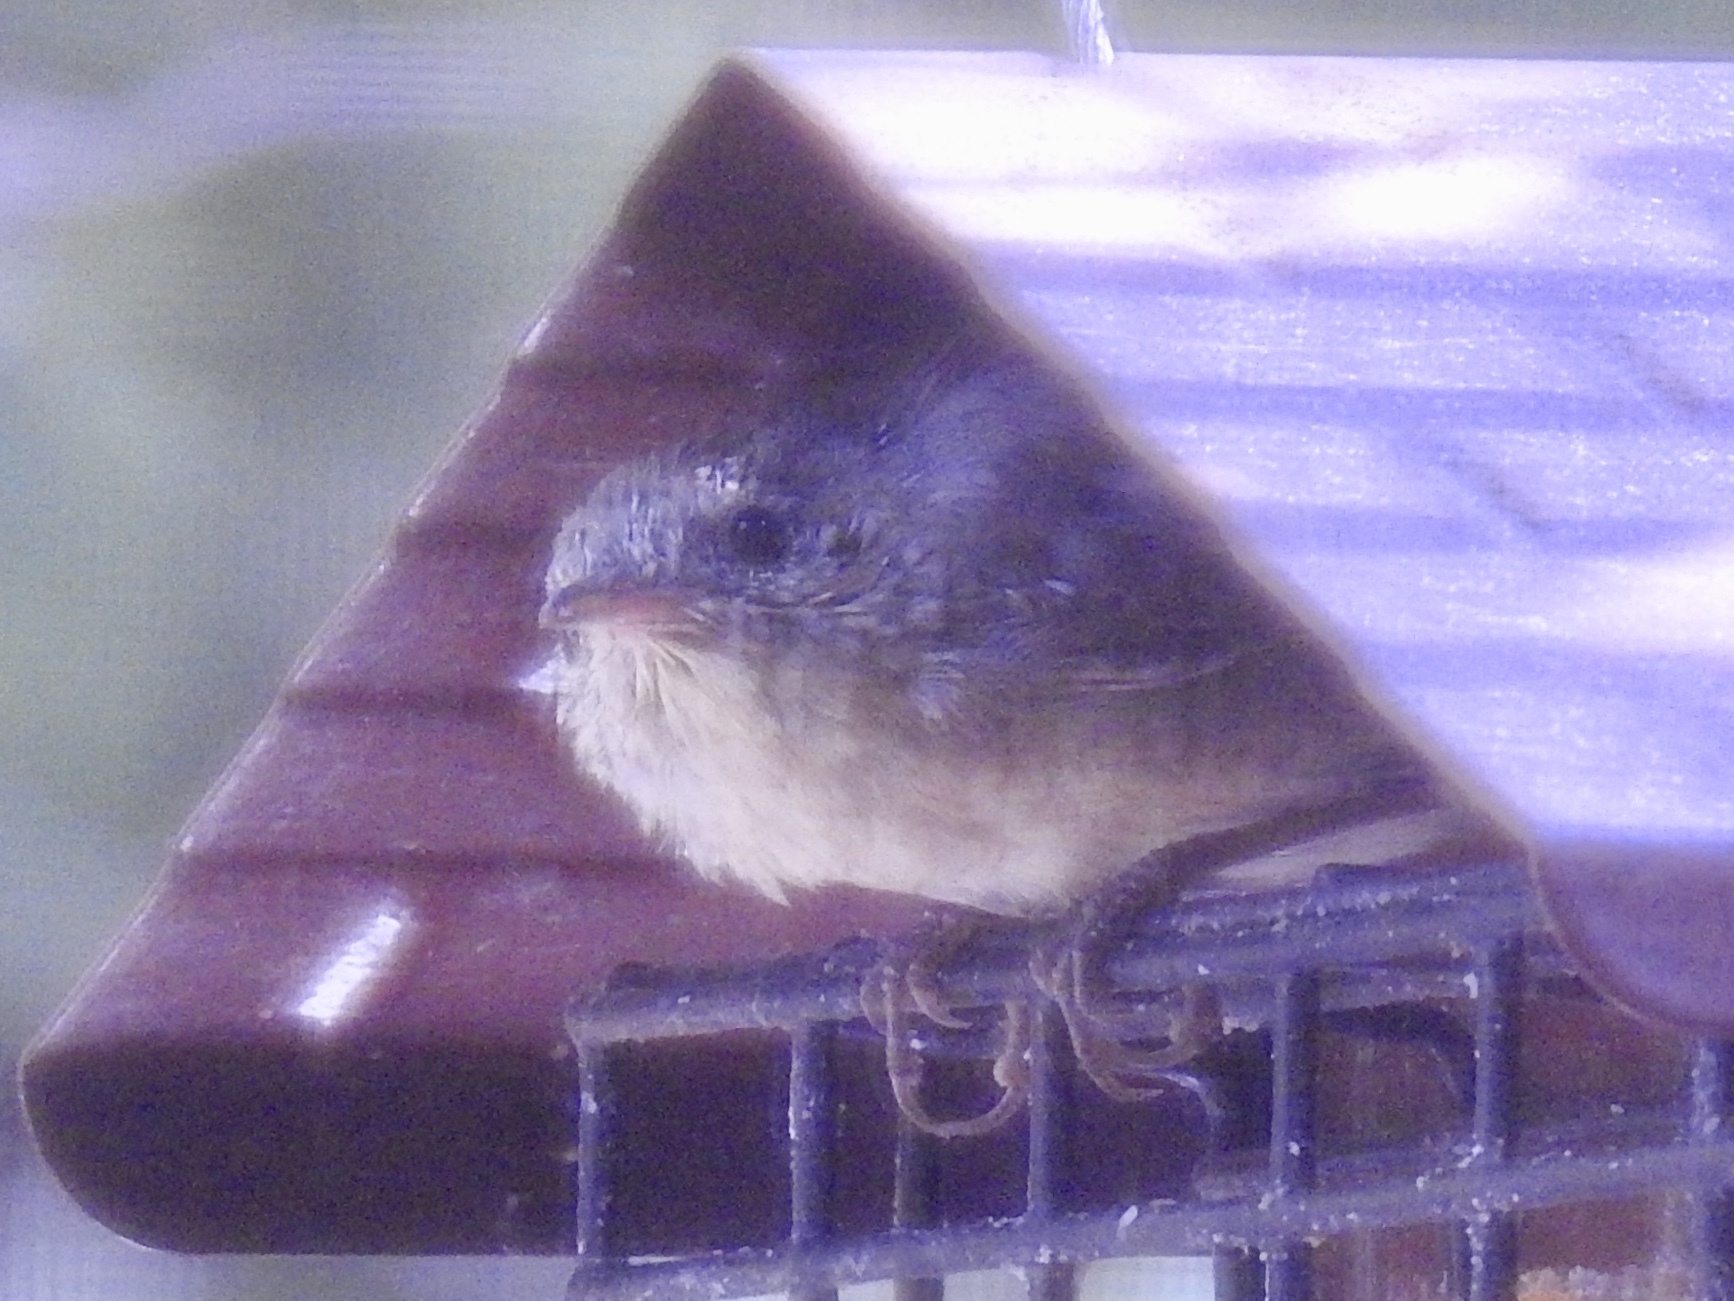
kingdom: Animalia
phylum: Chordata
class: Aves
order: Passeriformes
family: Troglodytidae
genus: Troglodytes
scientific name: Troglodytes aedon
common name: House wren
